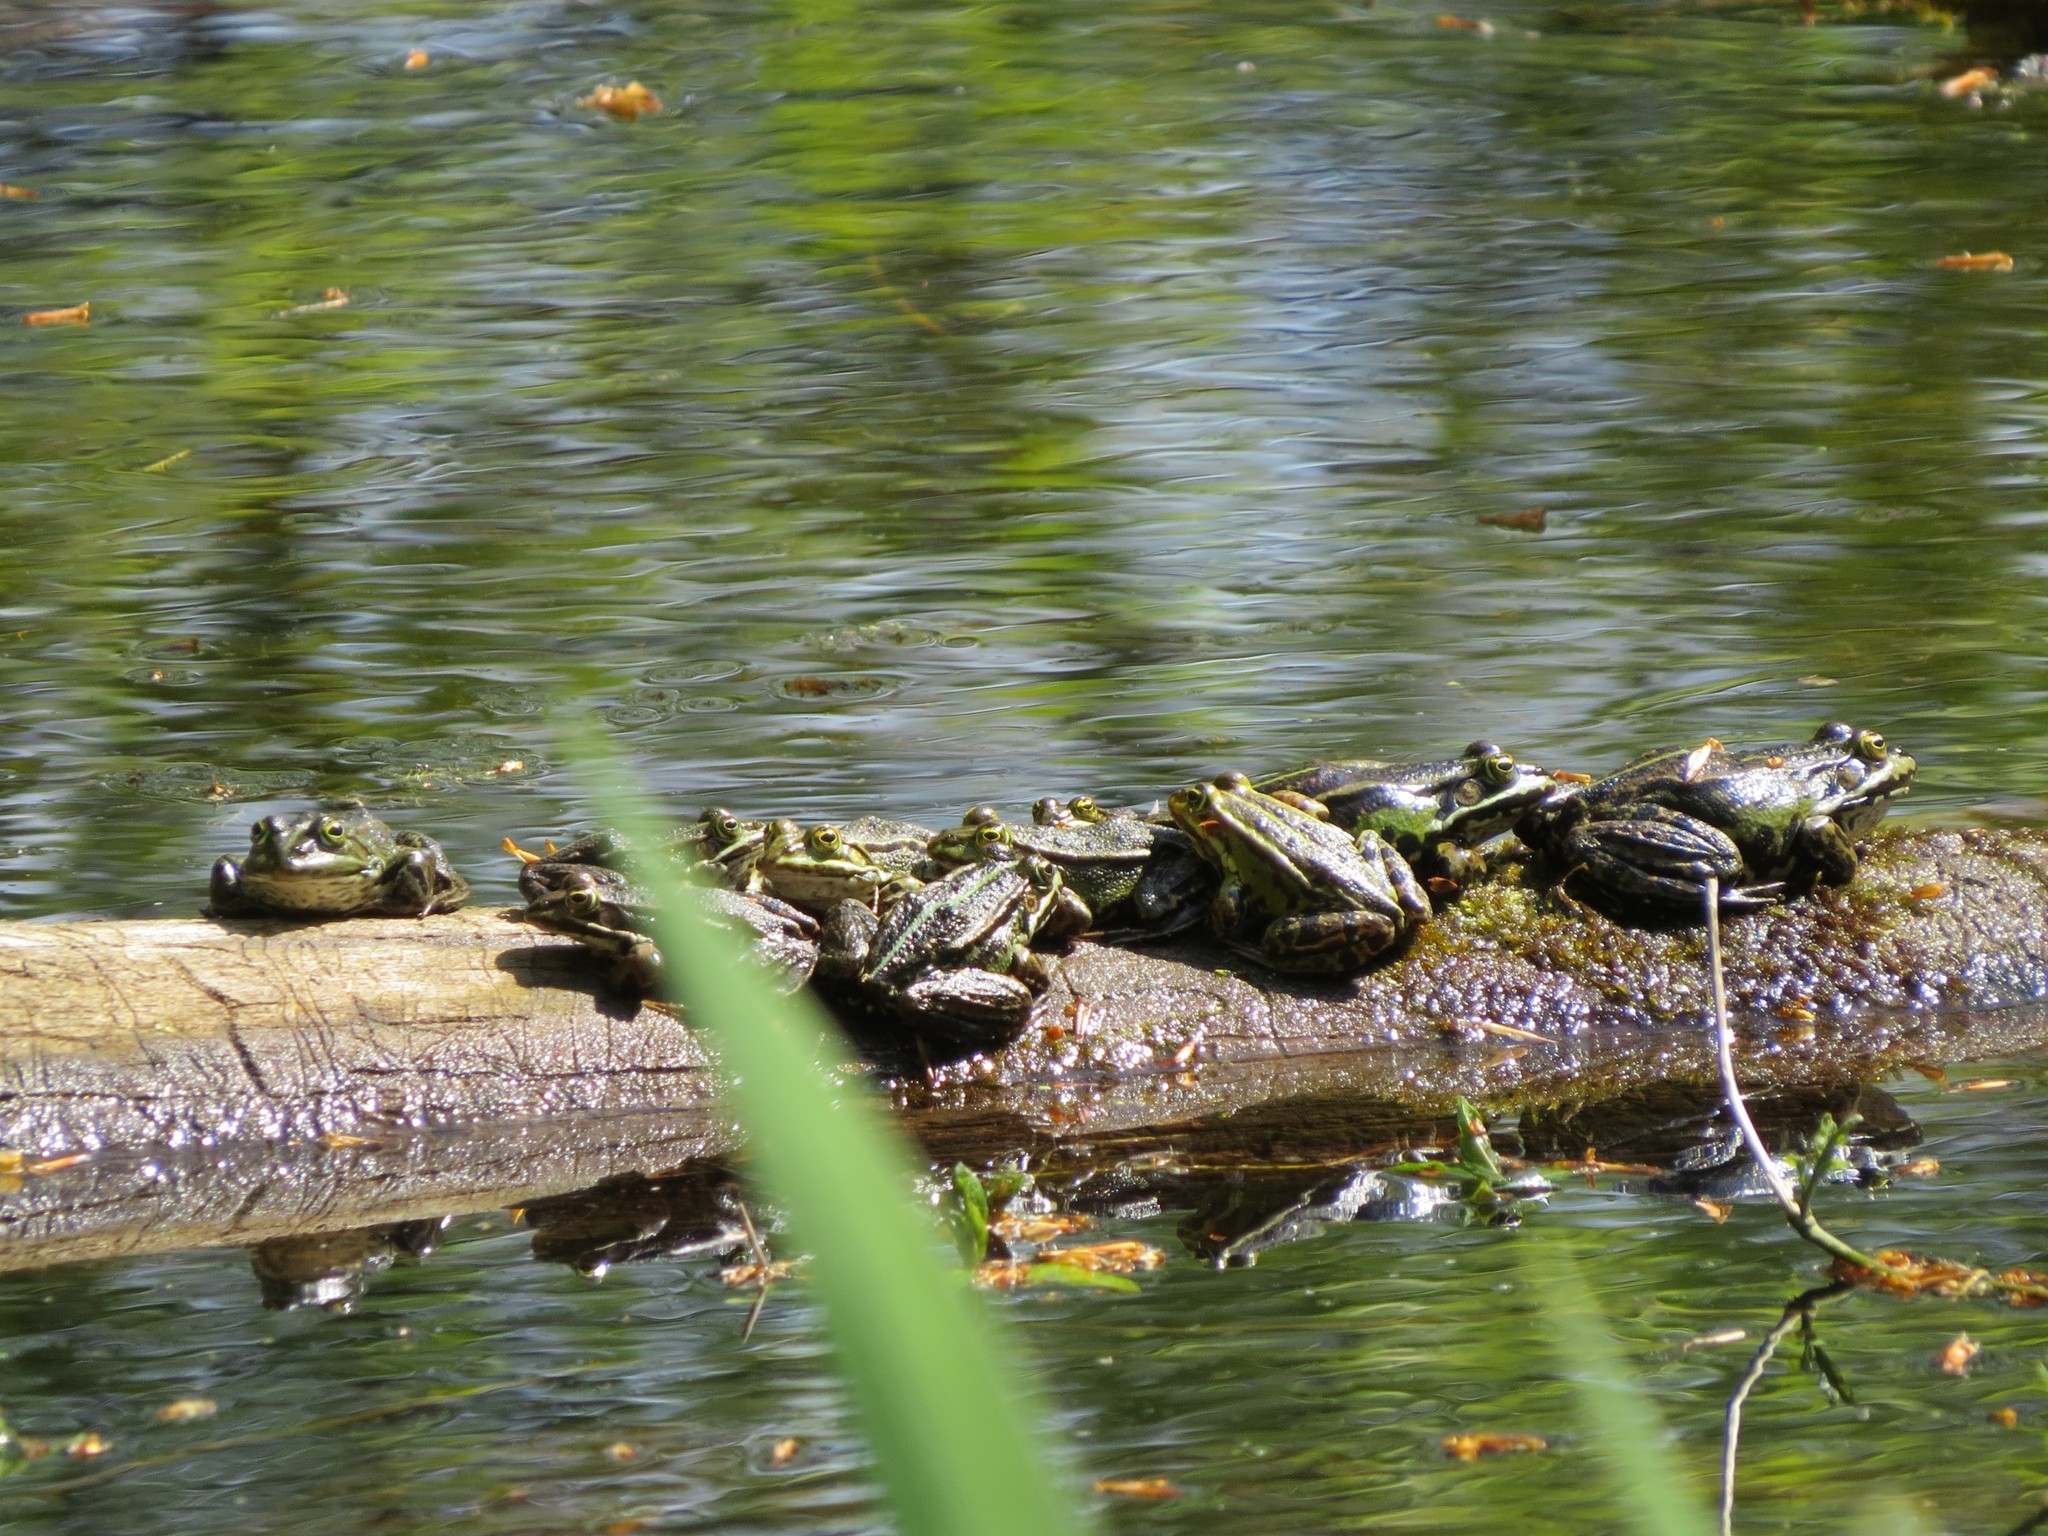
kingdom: Animalia
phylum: Chordata
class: Amphibia
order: Anura
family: Ranidae
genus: Pelophylax
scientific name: Pelophylax
